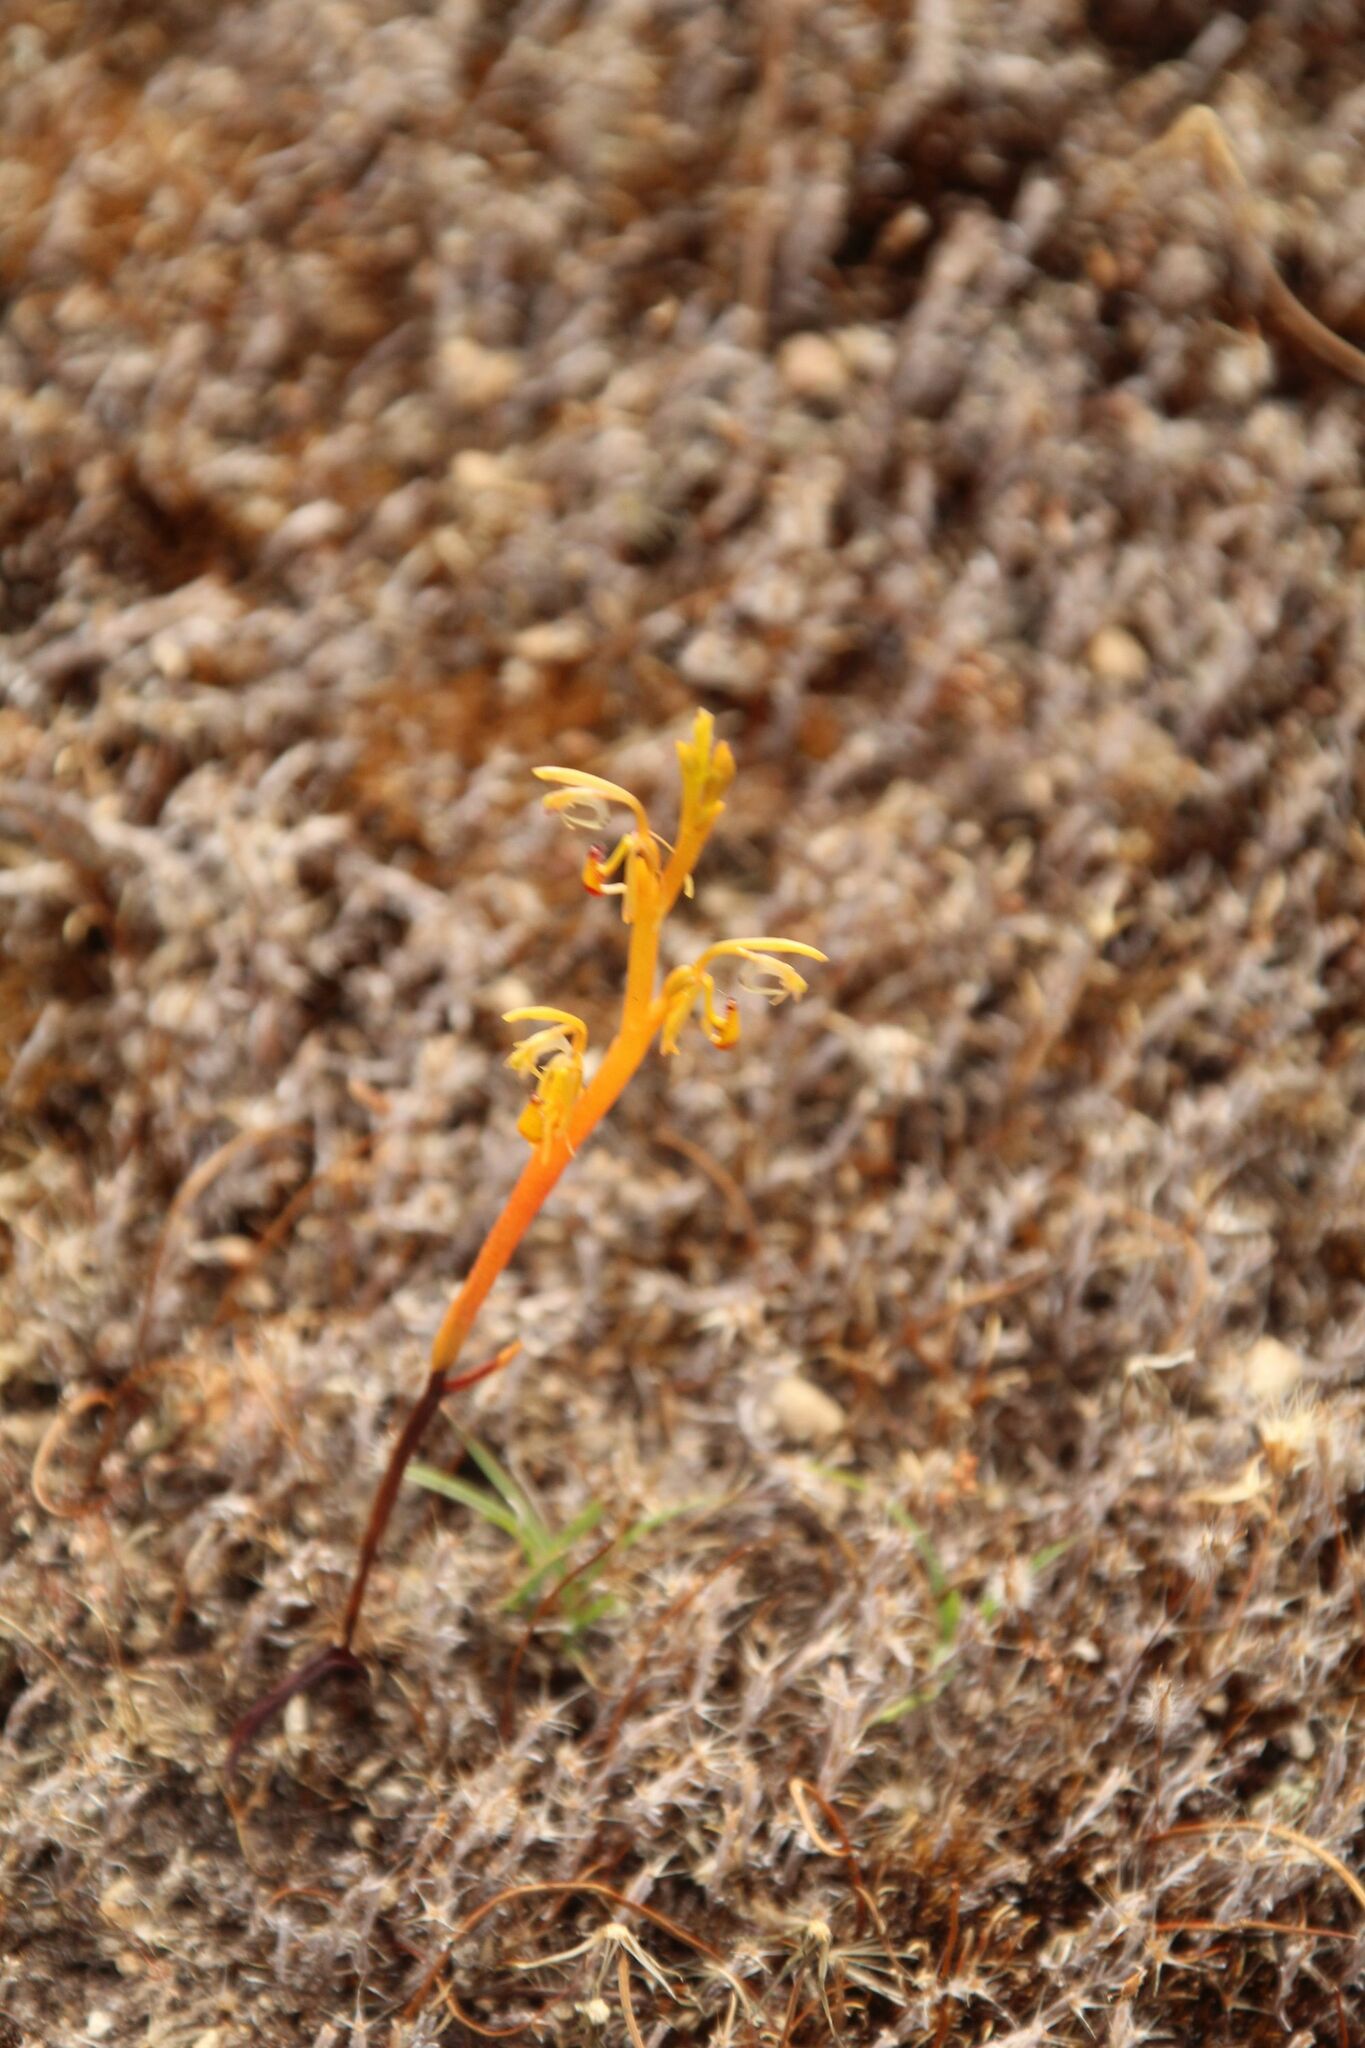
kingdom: Plantae
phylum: Tracheophyta
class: Liliopsida
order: Asparagales
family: Orchidaceae
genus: Spiculaea
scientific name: Spiculaea ciliata
